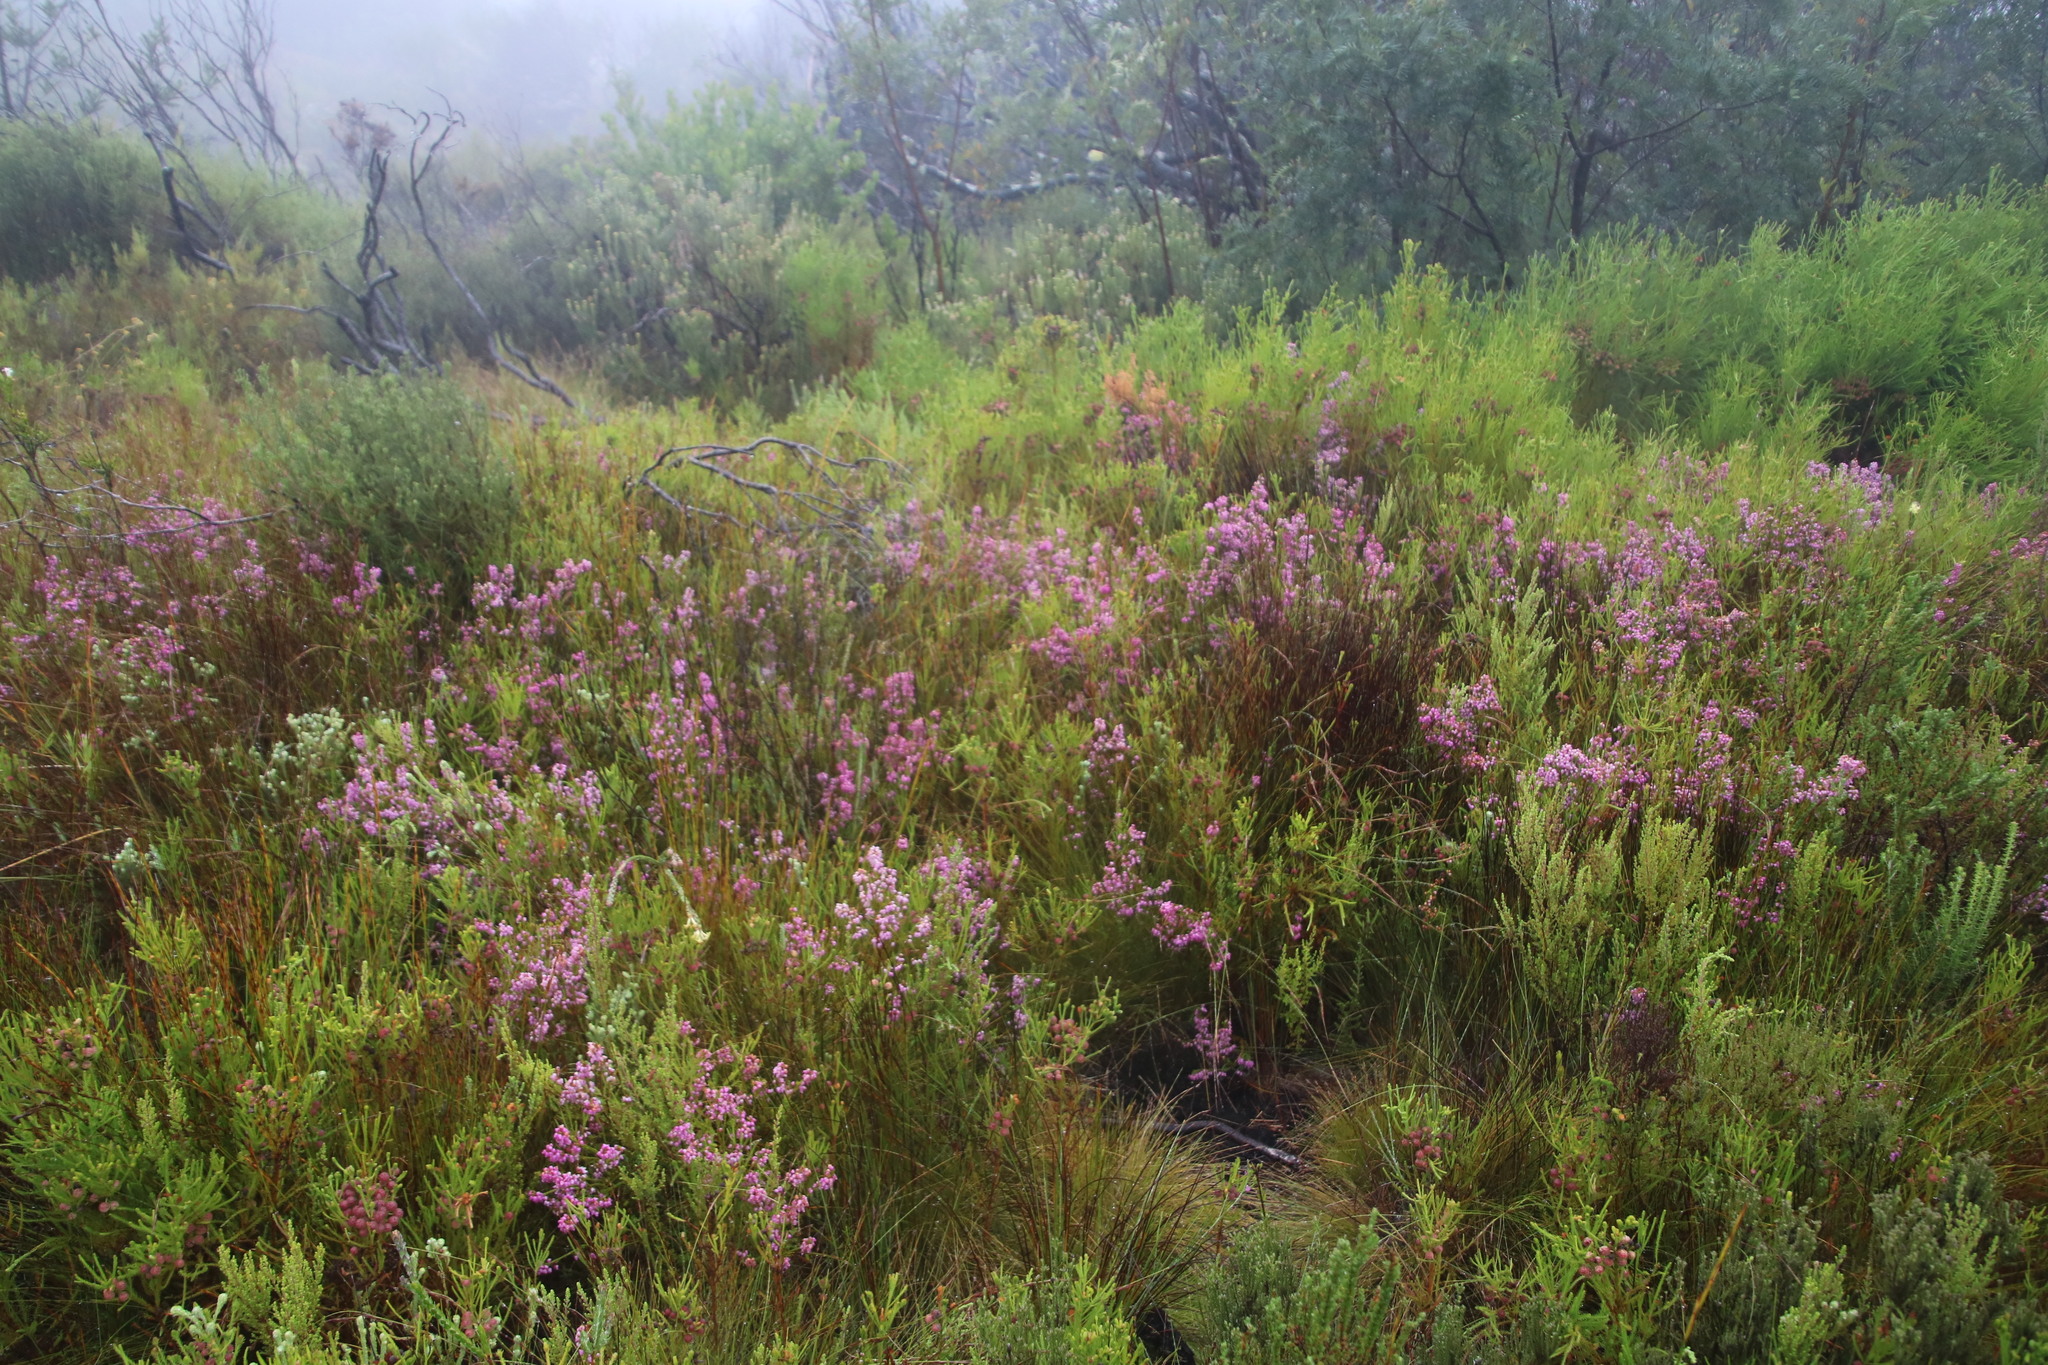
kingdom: Plantae
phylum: Tracheophyta
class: Magnoliopsida
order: Ericales
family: Ericaceae
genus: Erica
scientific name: Erica laeta
